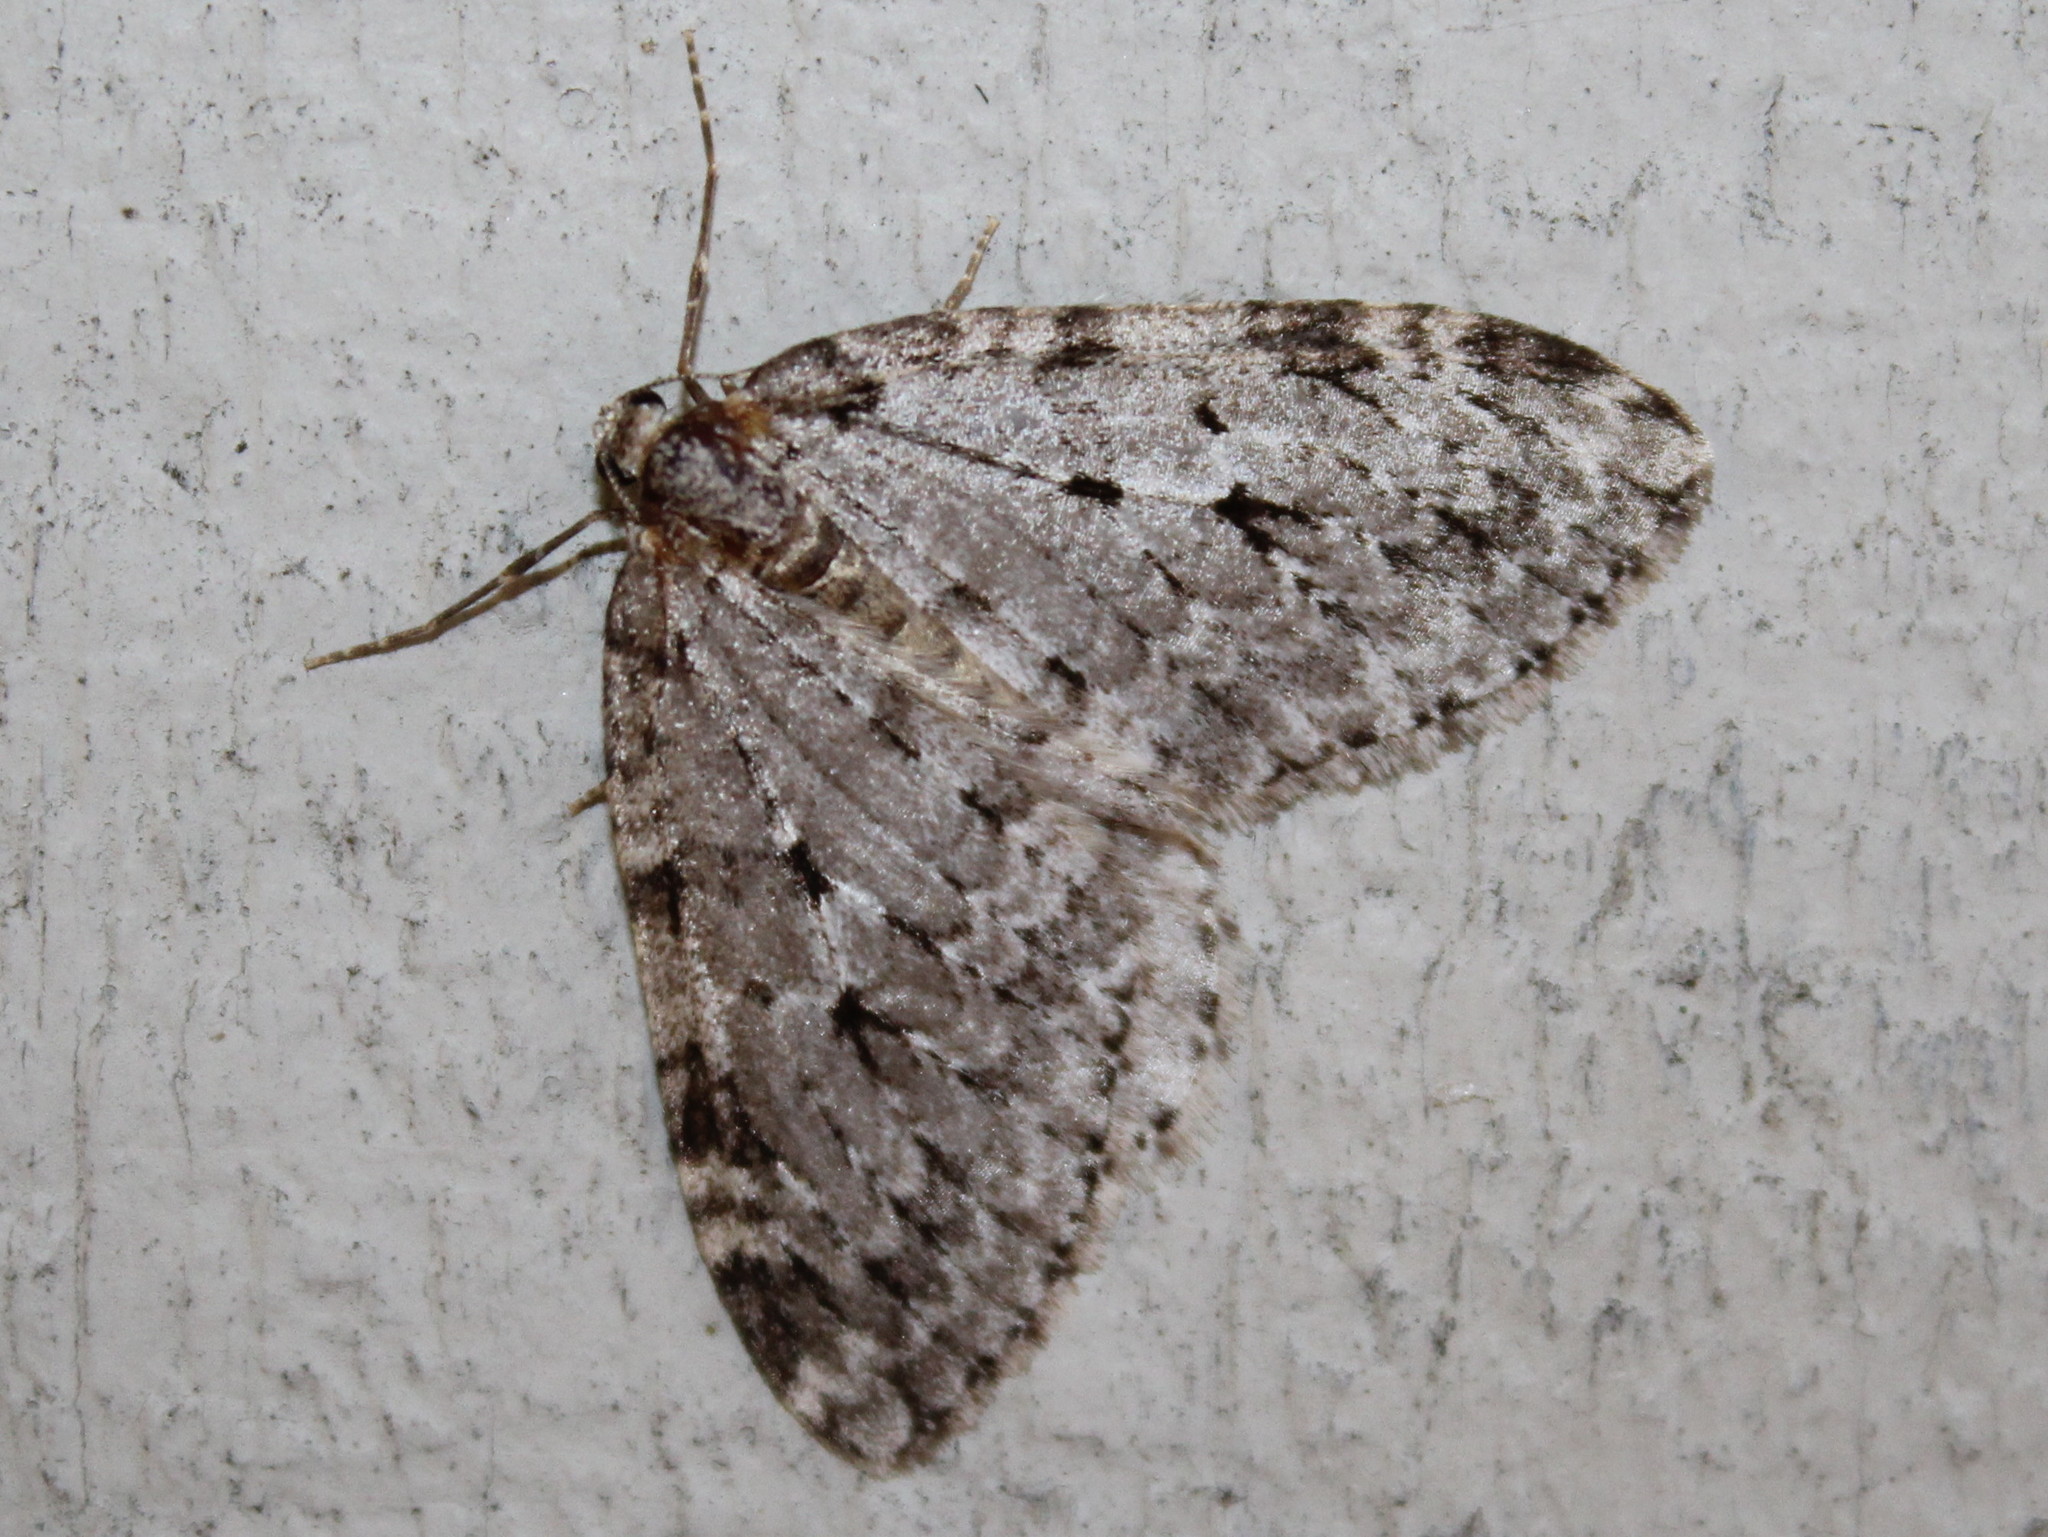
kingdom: Animalia
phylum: Arthropoda
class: Insecta
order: Lepidoptera
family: Geometridae
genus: Epirrita
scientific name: Epirrita autumnata
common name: Autumnal moth
